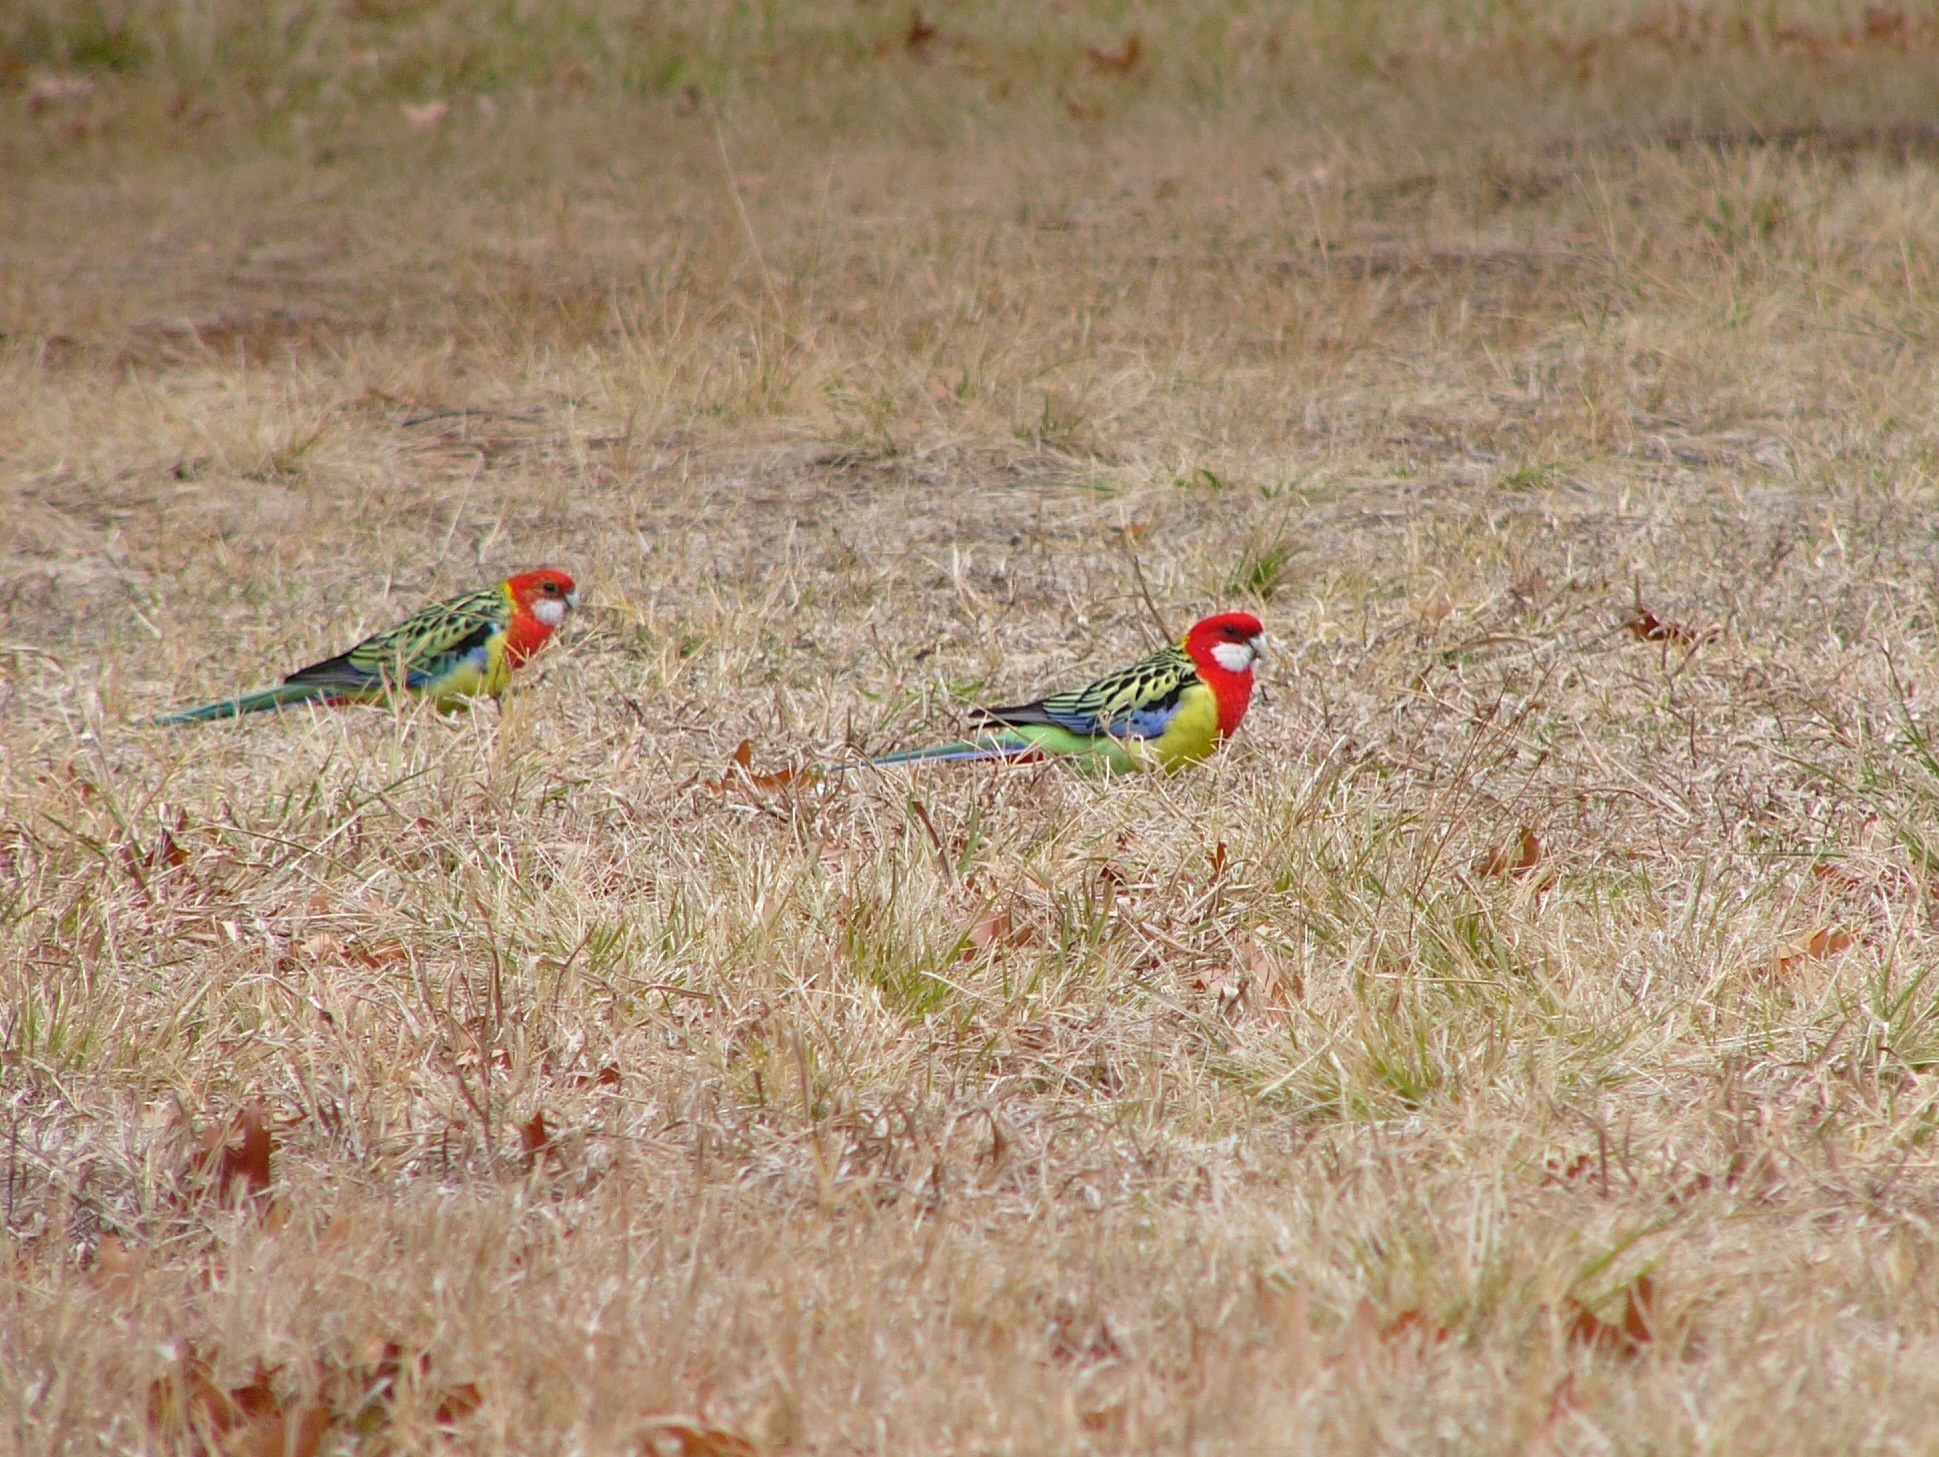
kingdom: Animalia
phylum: Chordata
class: Aves
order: Psittaciformes
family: Psittacidae
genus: Platycercus
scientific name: Platycercus eximius
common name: Eastern rosella
